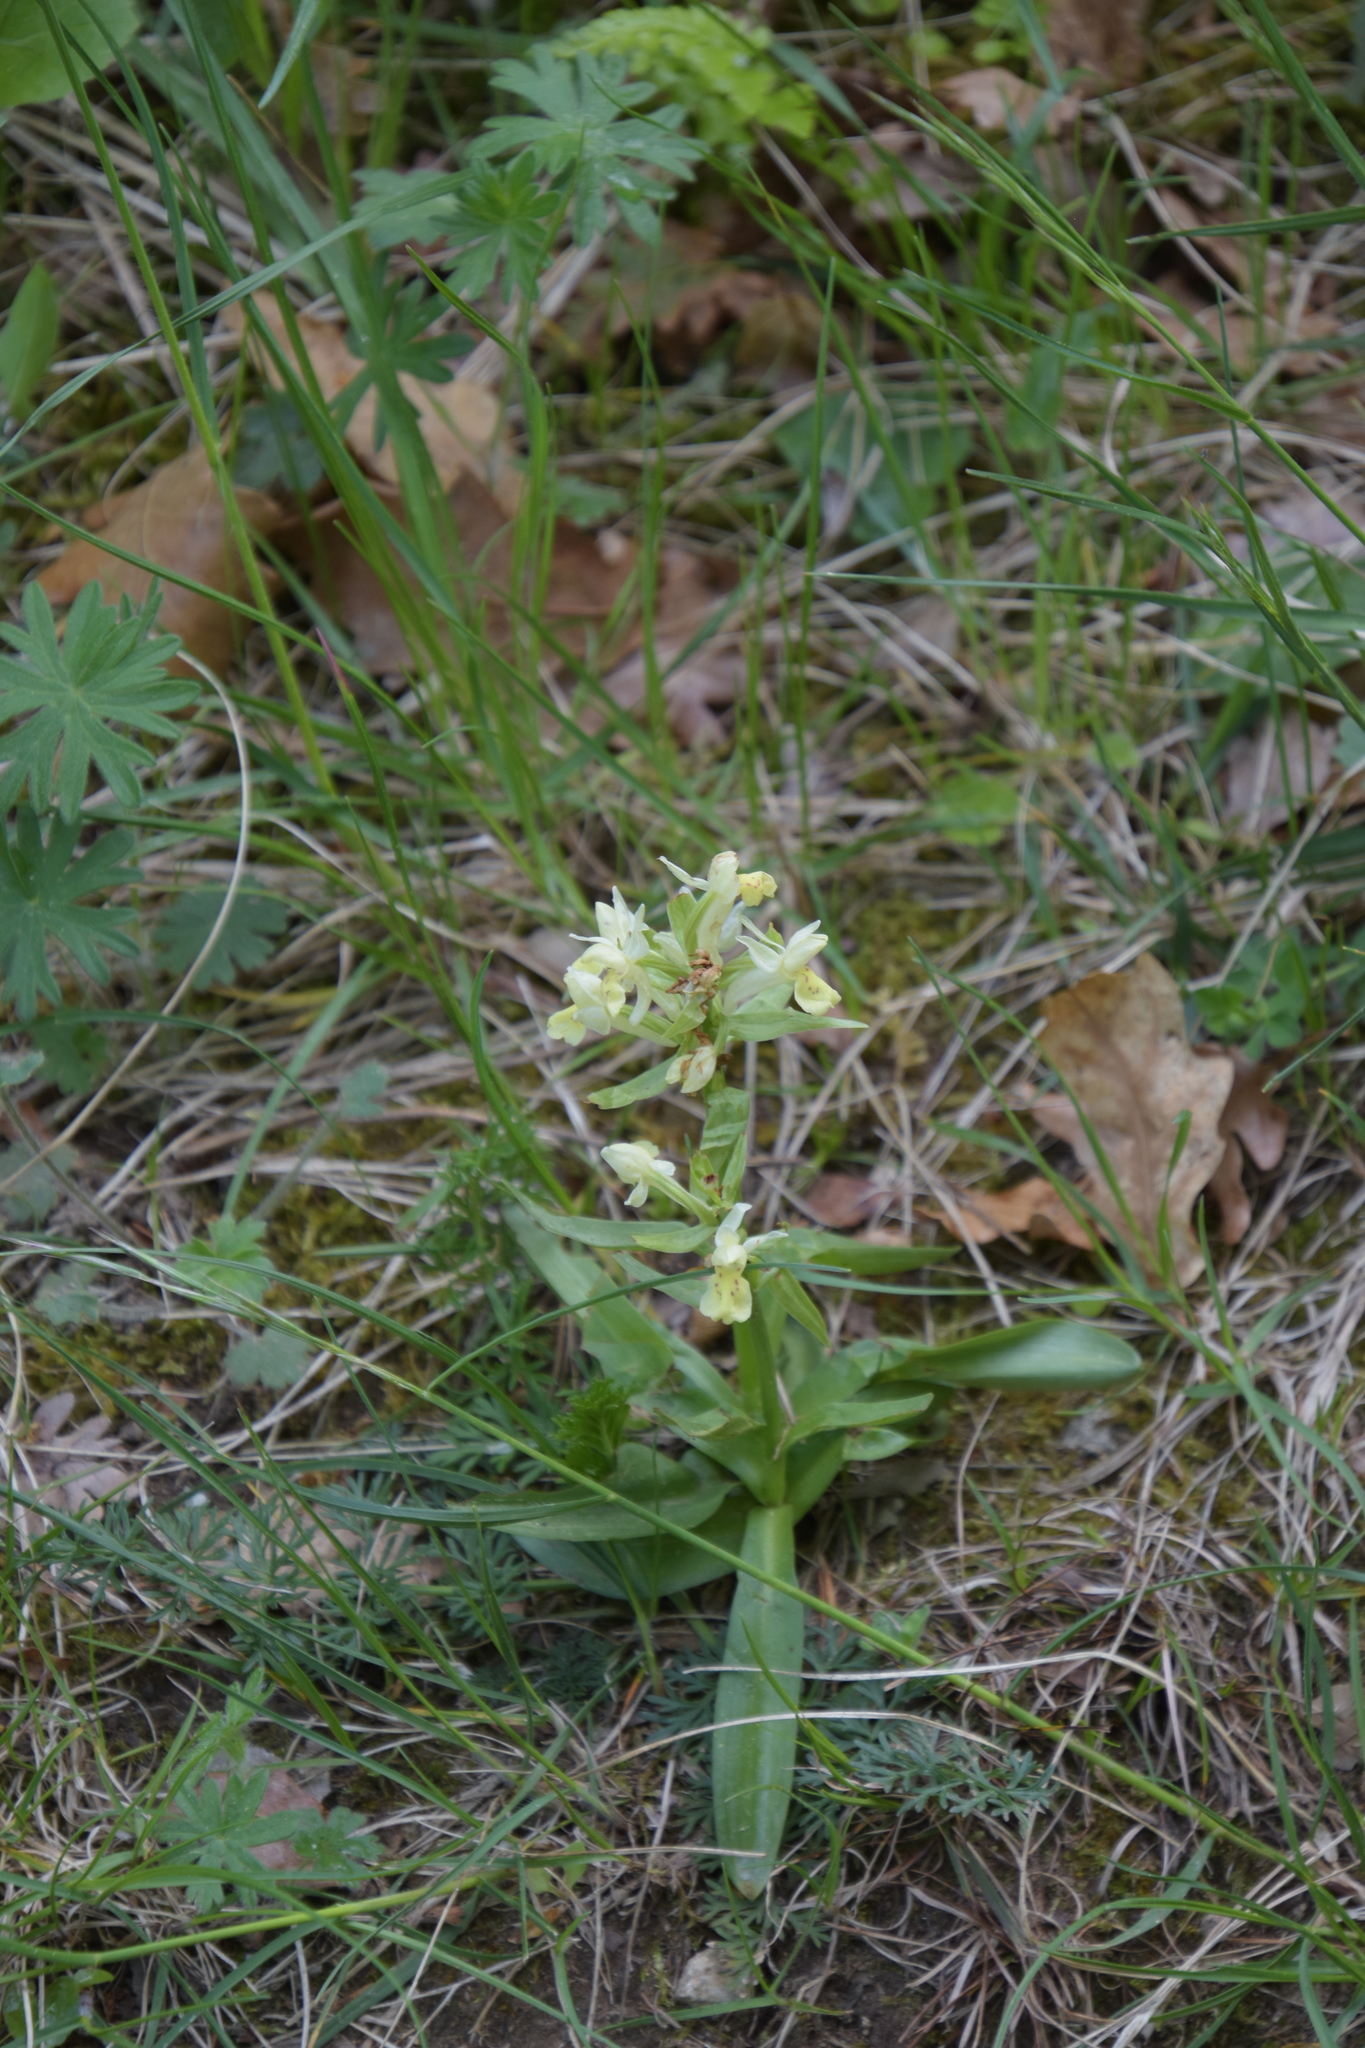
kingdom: Plantae
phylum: Tracheophyta
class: Liliopsida
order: Asparagales
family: Orchidaceae
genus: Dactylorhiza
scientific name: Dactylorhiza sambucina
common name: Elder-flowered orchid
